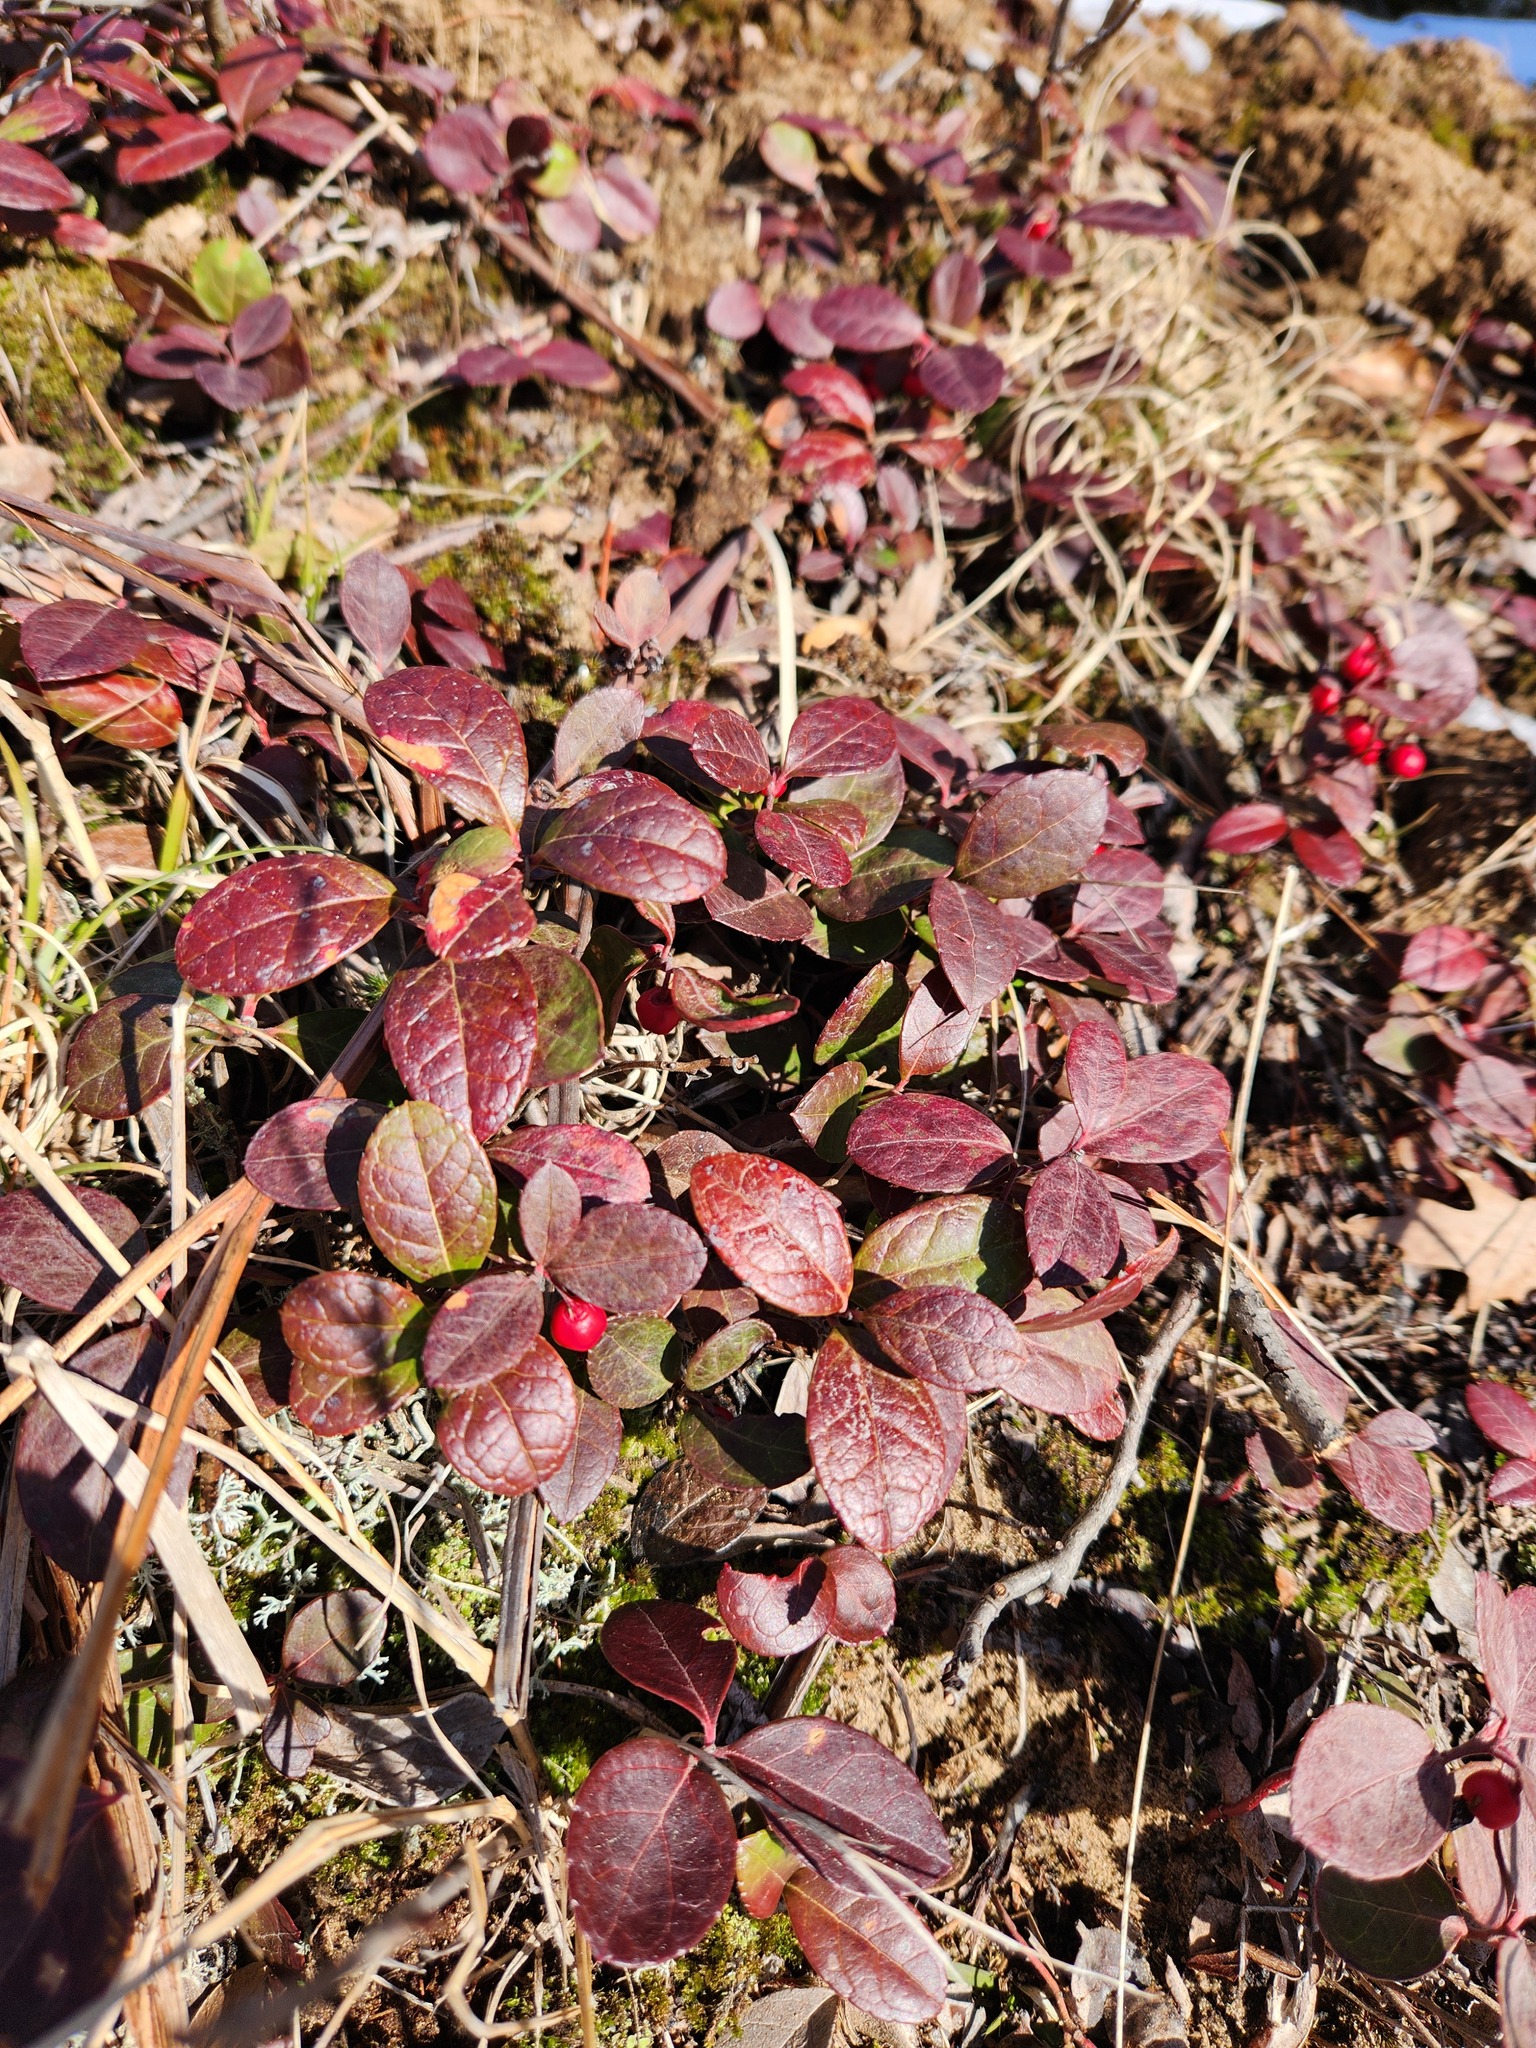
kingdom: Plantae
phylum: Tracheophyta
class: Magnoliopsida
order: Ericales
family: Ericaceae
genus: Gaultheria
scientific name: Gaultheria procumbens
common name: Checkerberry
